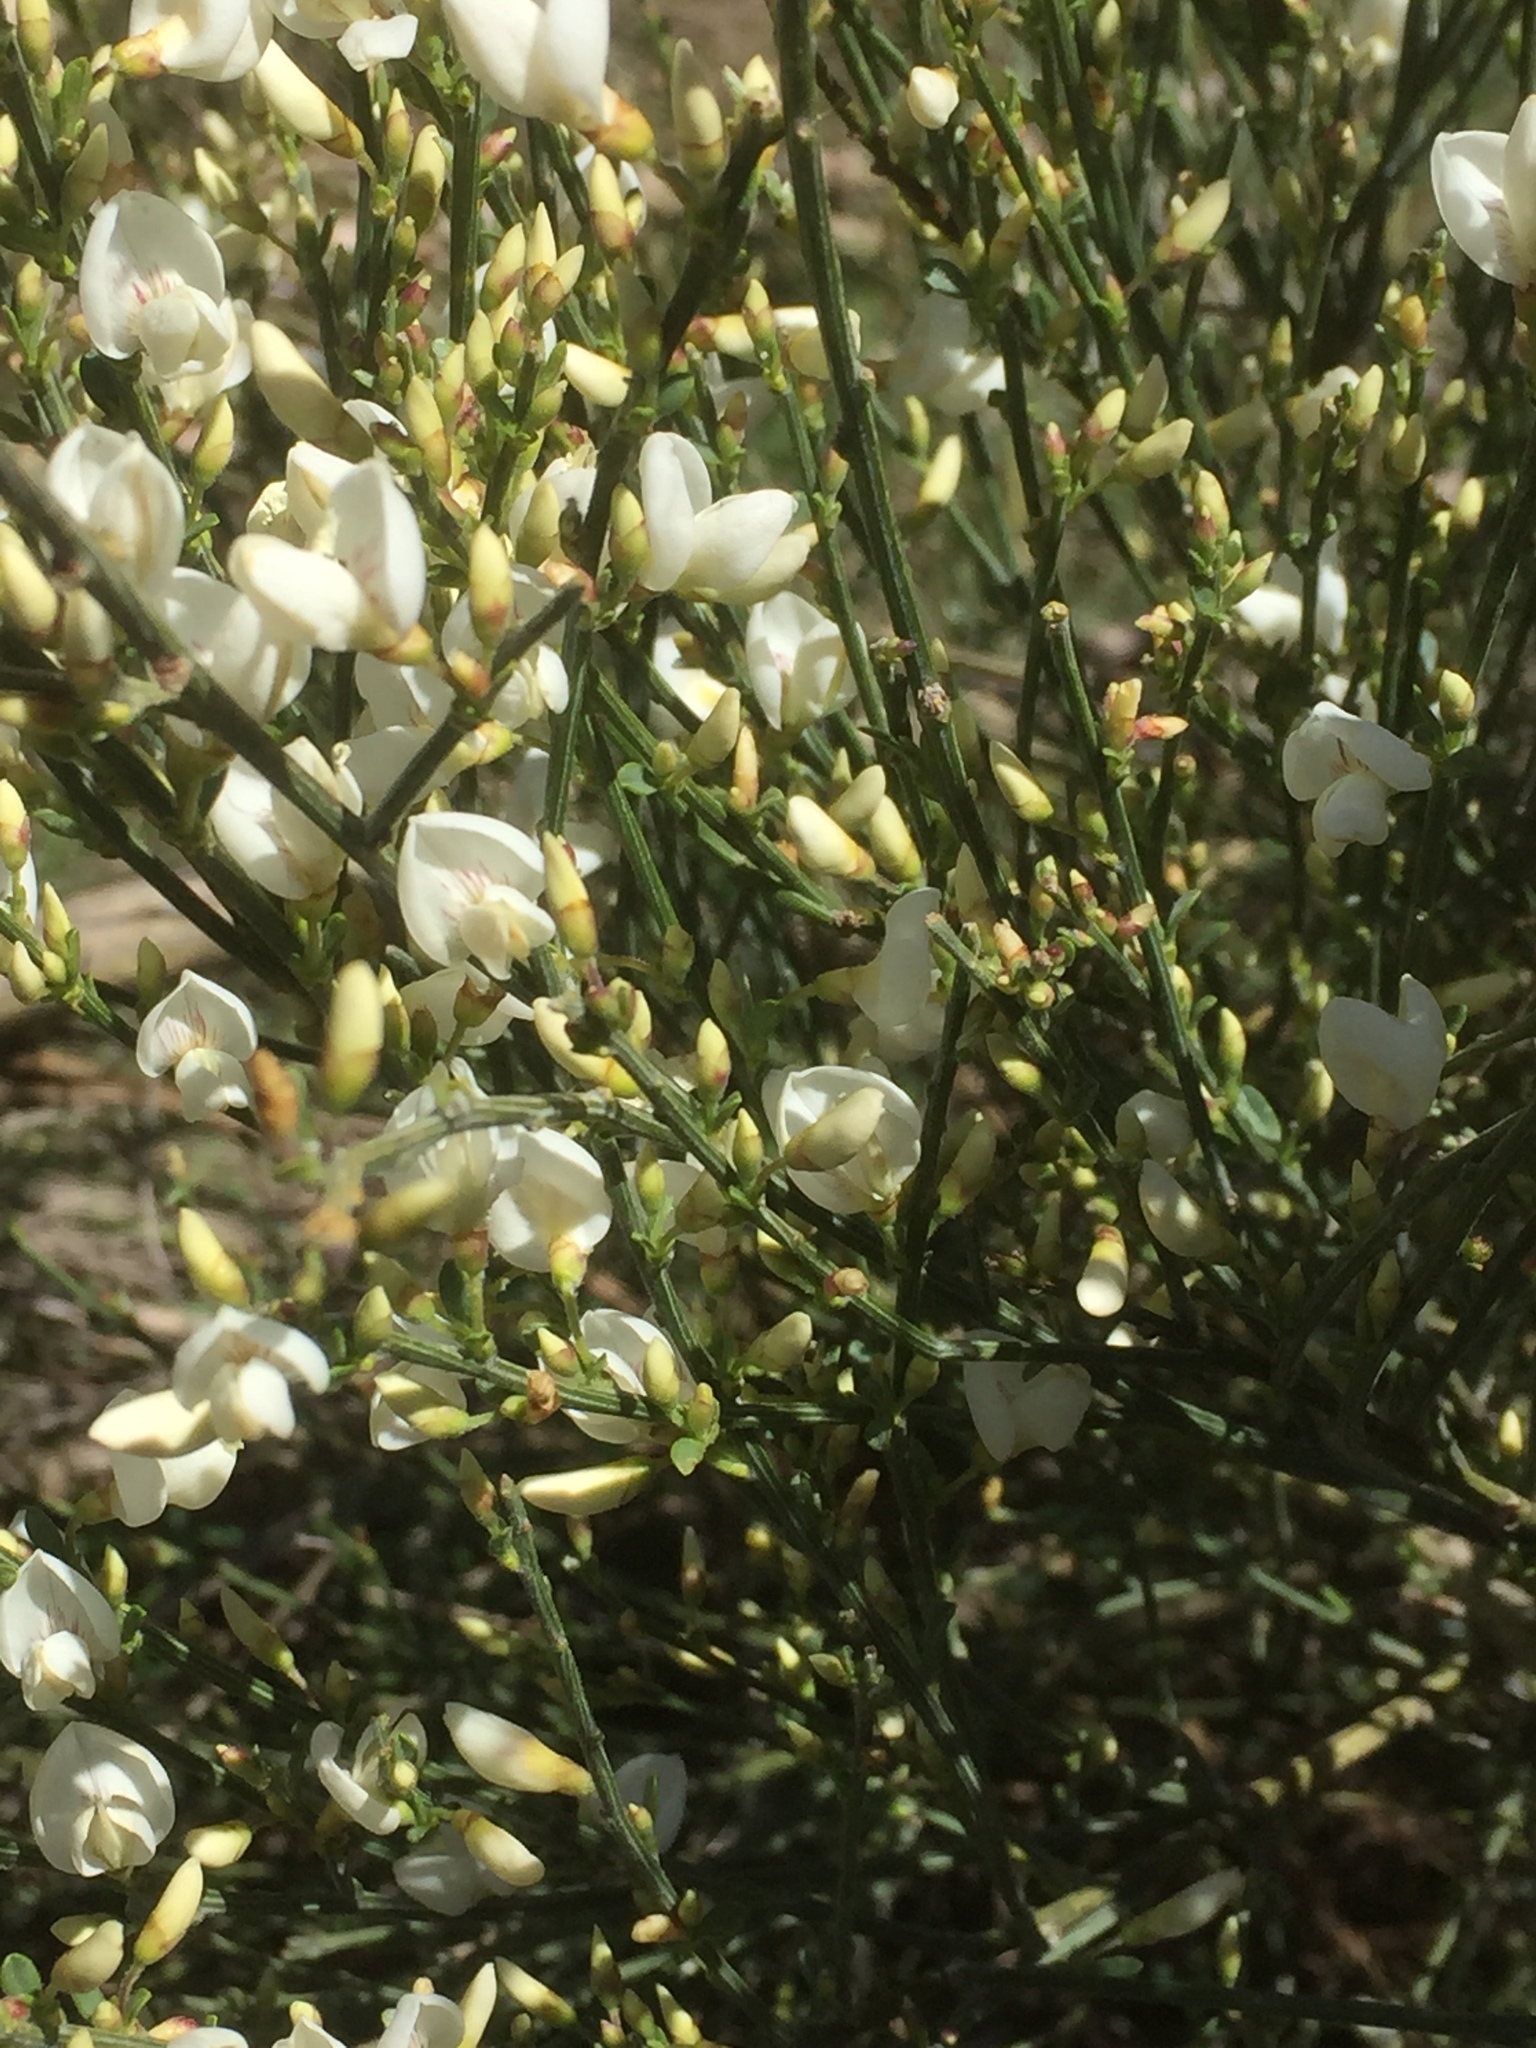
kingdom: Plantae
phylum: Tracheophyta
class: Magnoliopsida
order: Fabales
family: Fabaceae
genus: Cytisus
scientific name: Cytisus multiflorus
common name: White broom
